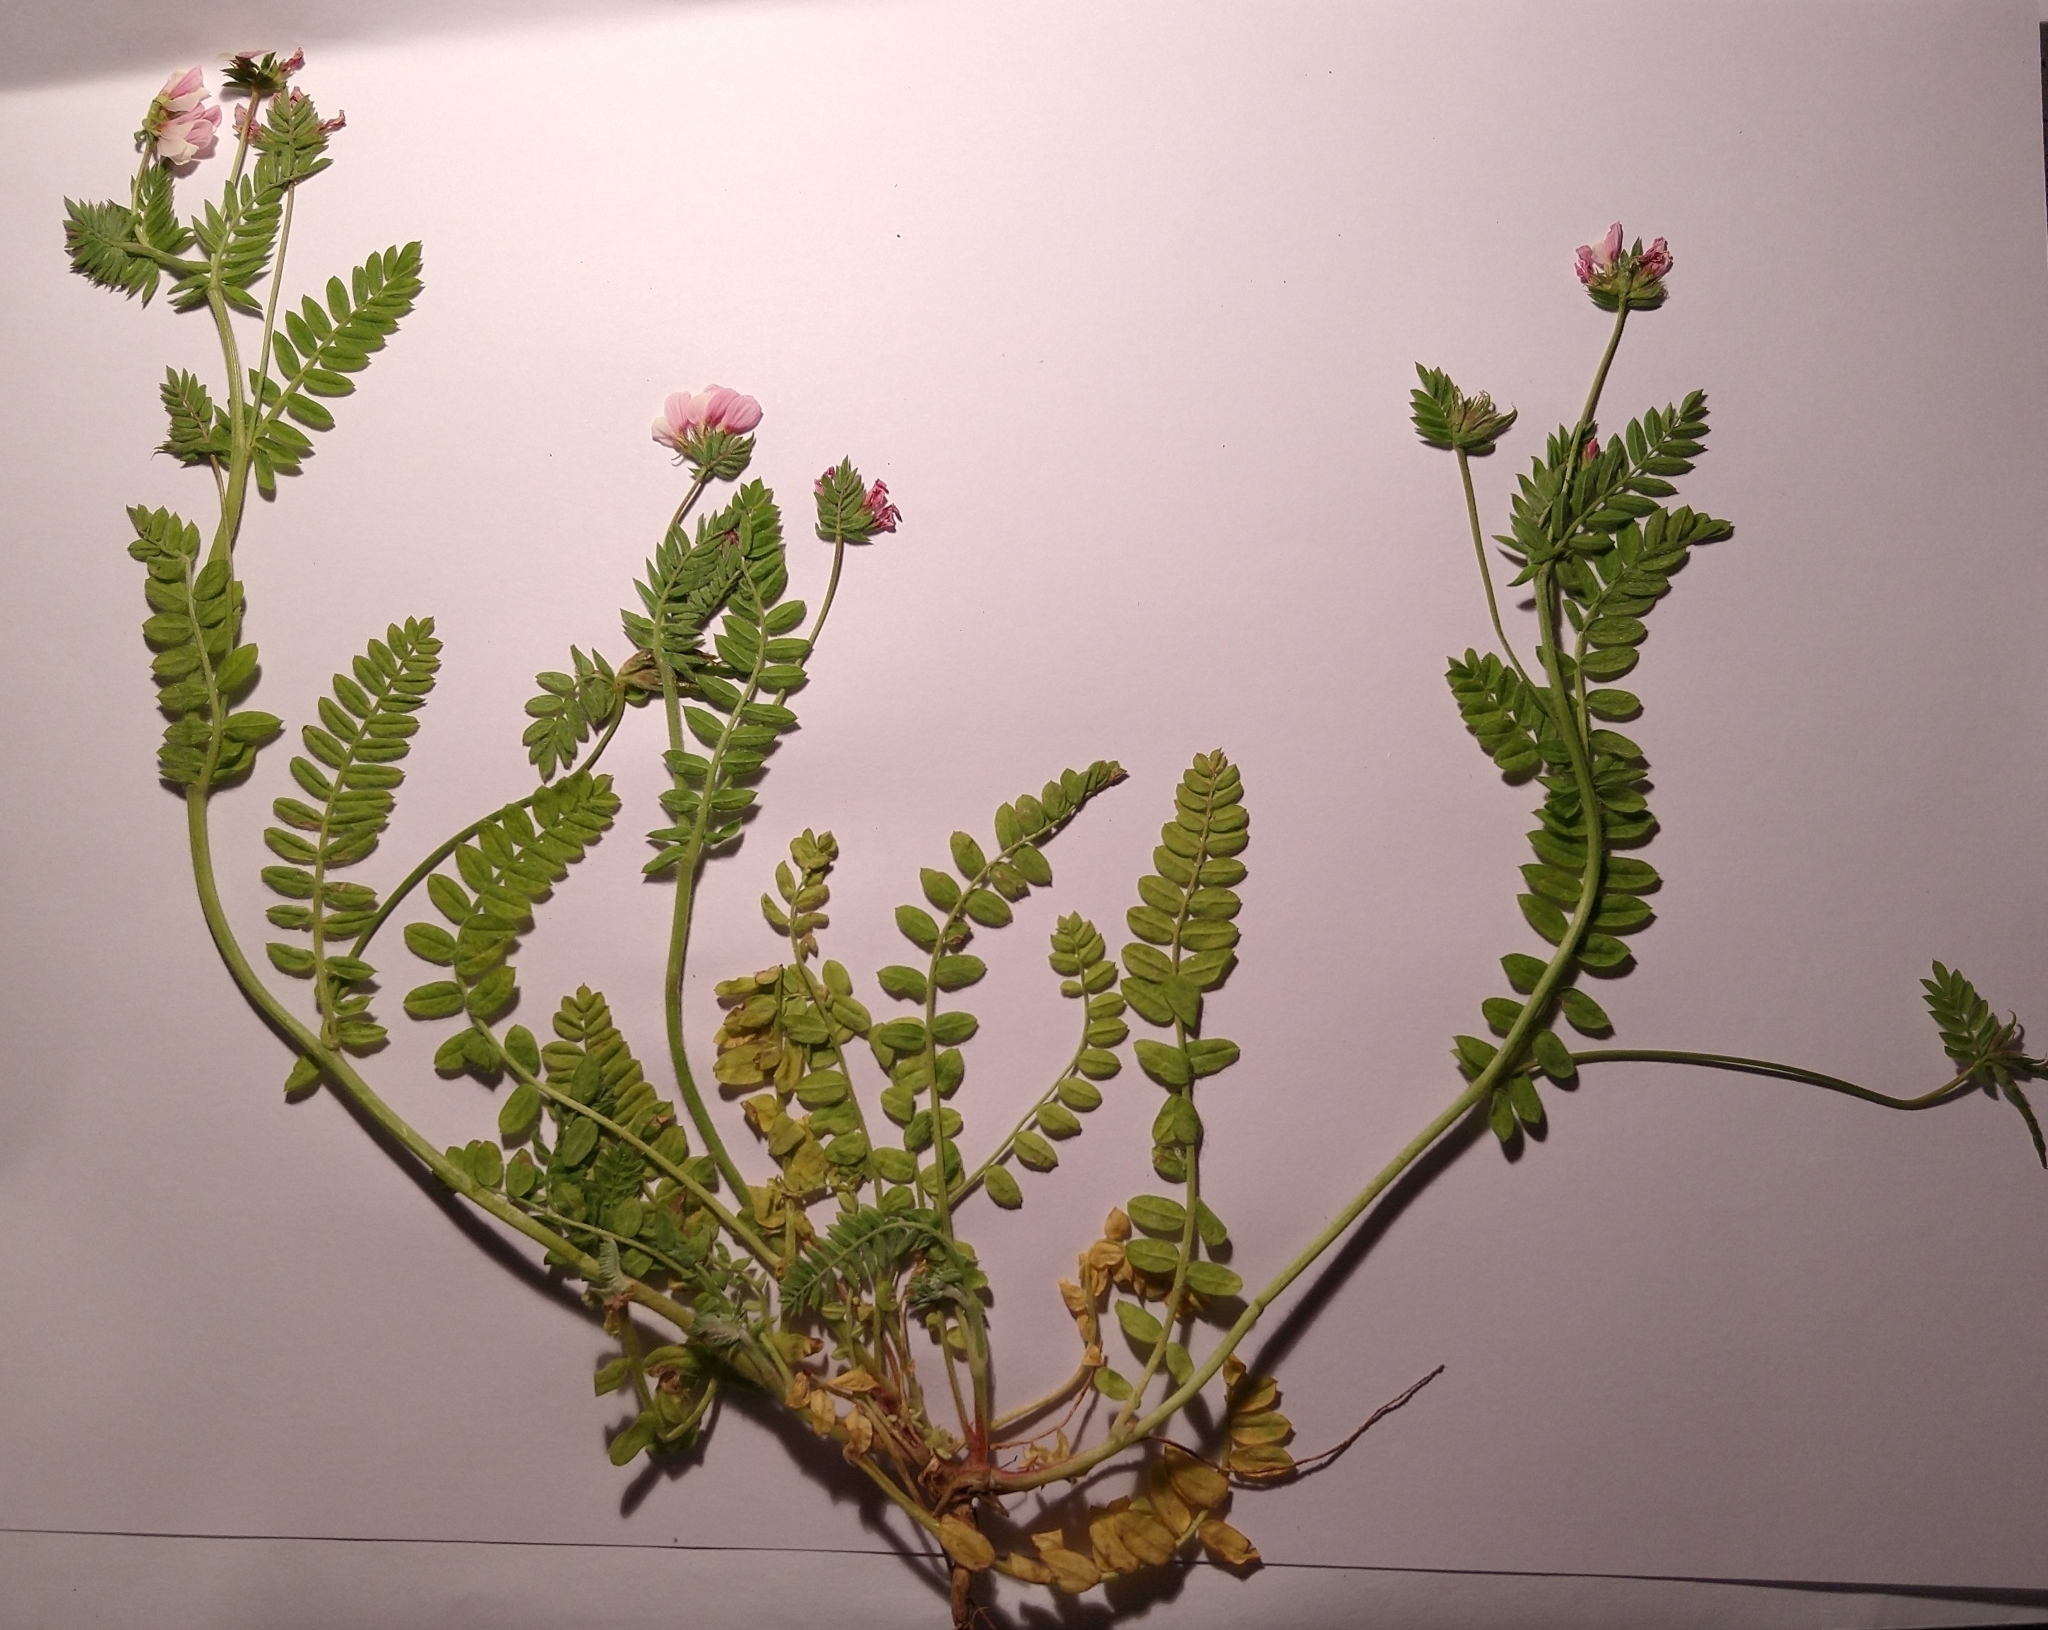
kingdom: Plantae
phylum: Tracheophyta
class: Magnoliopsida
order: Fabales
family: Fabaceae
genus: Ornithopus
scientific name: Ornithopus sativus
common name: Serradella
